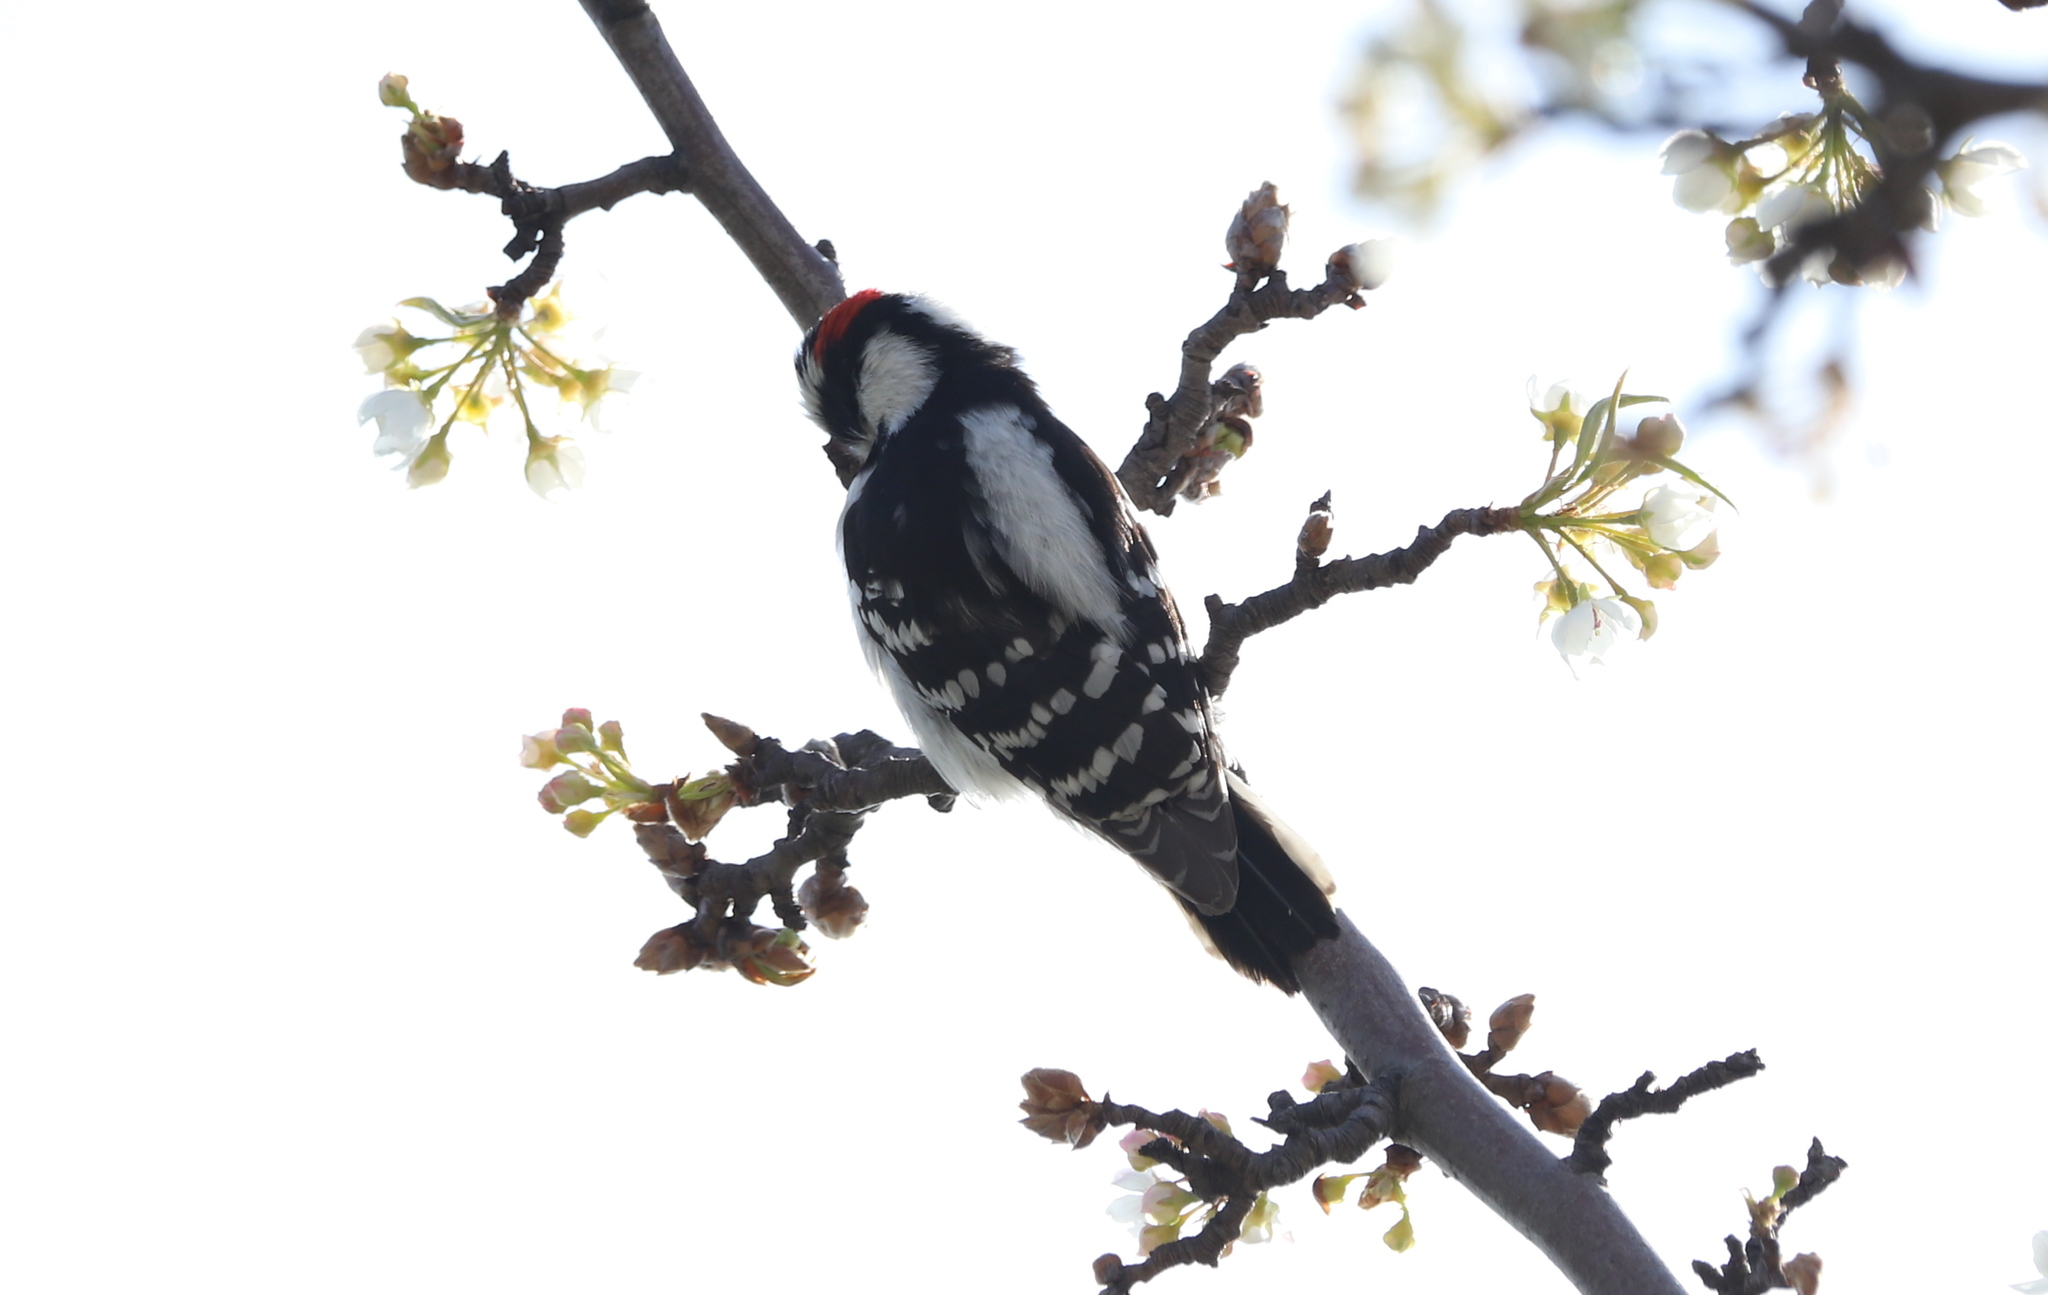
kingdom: Animalia
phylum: Chordata
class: Aves
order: Piciformes
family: Picidae
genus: Dryobates
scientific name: Dryobates pubescens
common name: Downy woodpecker
